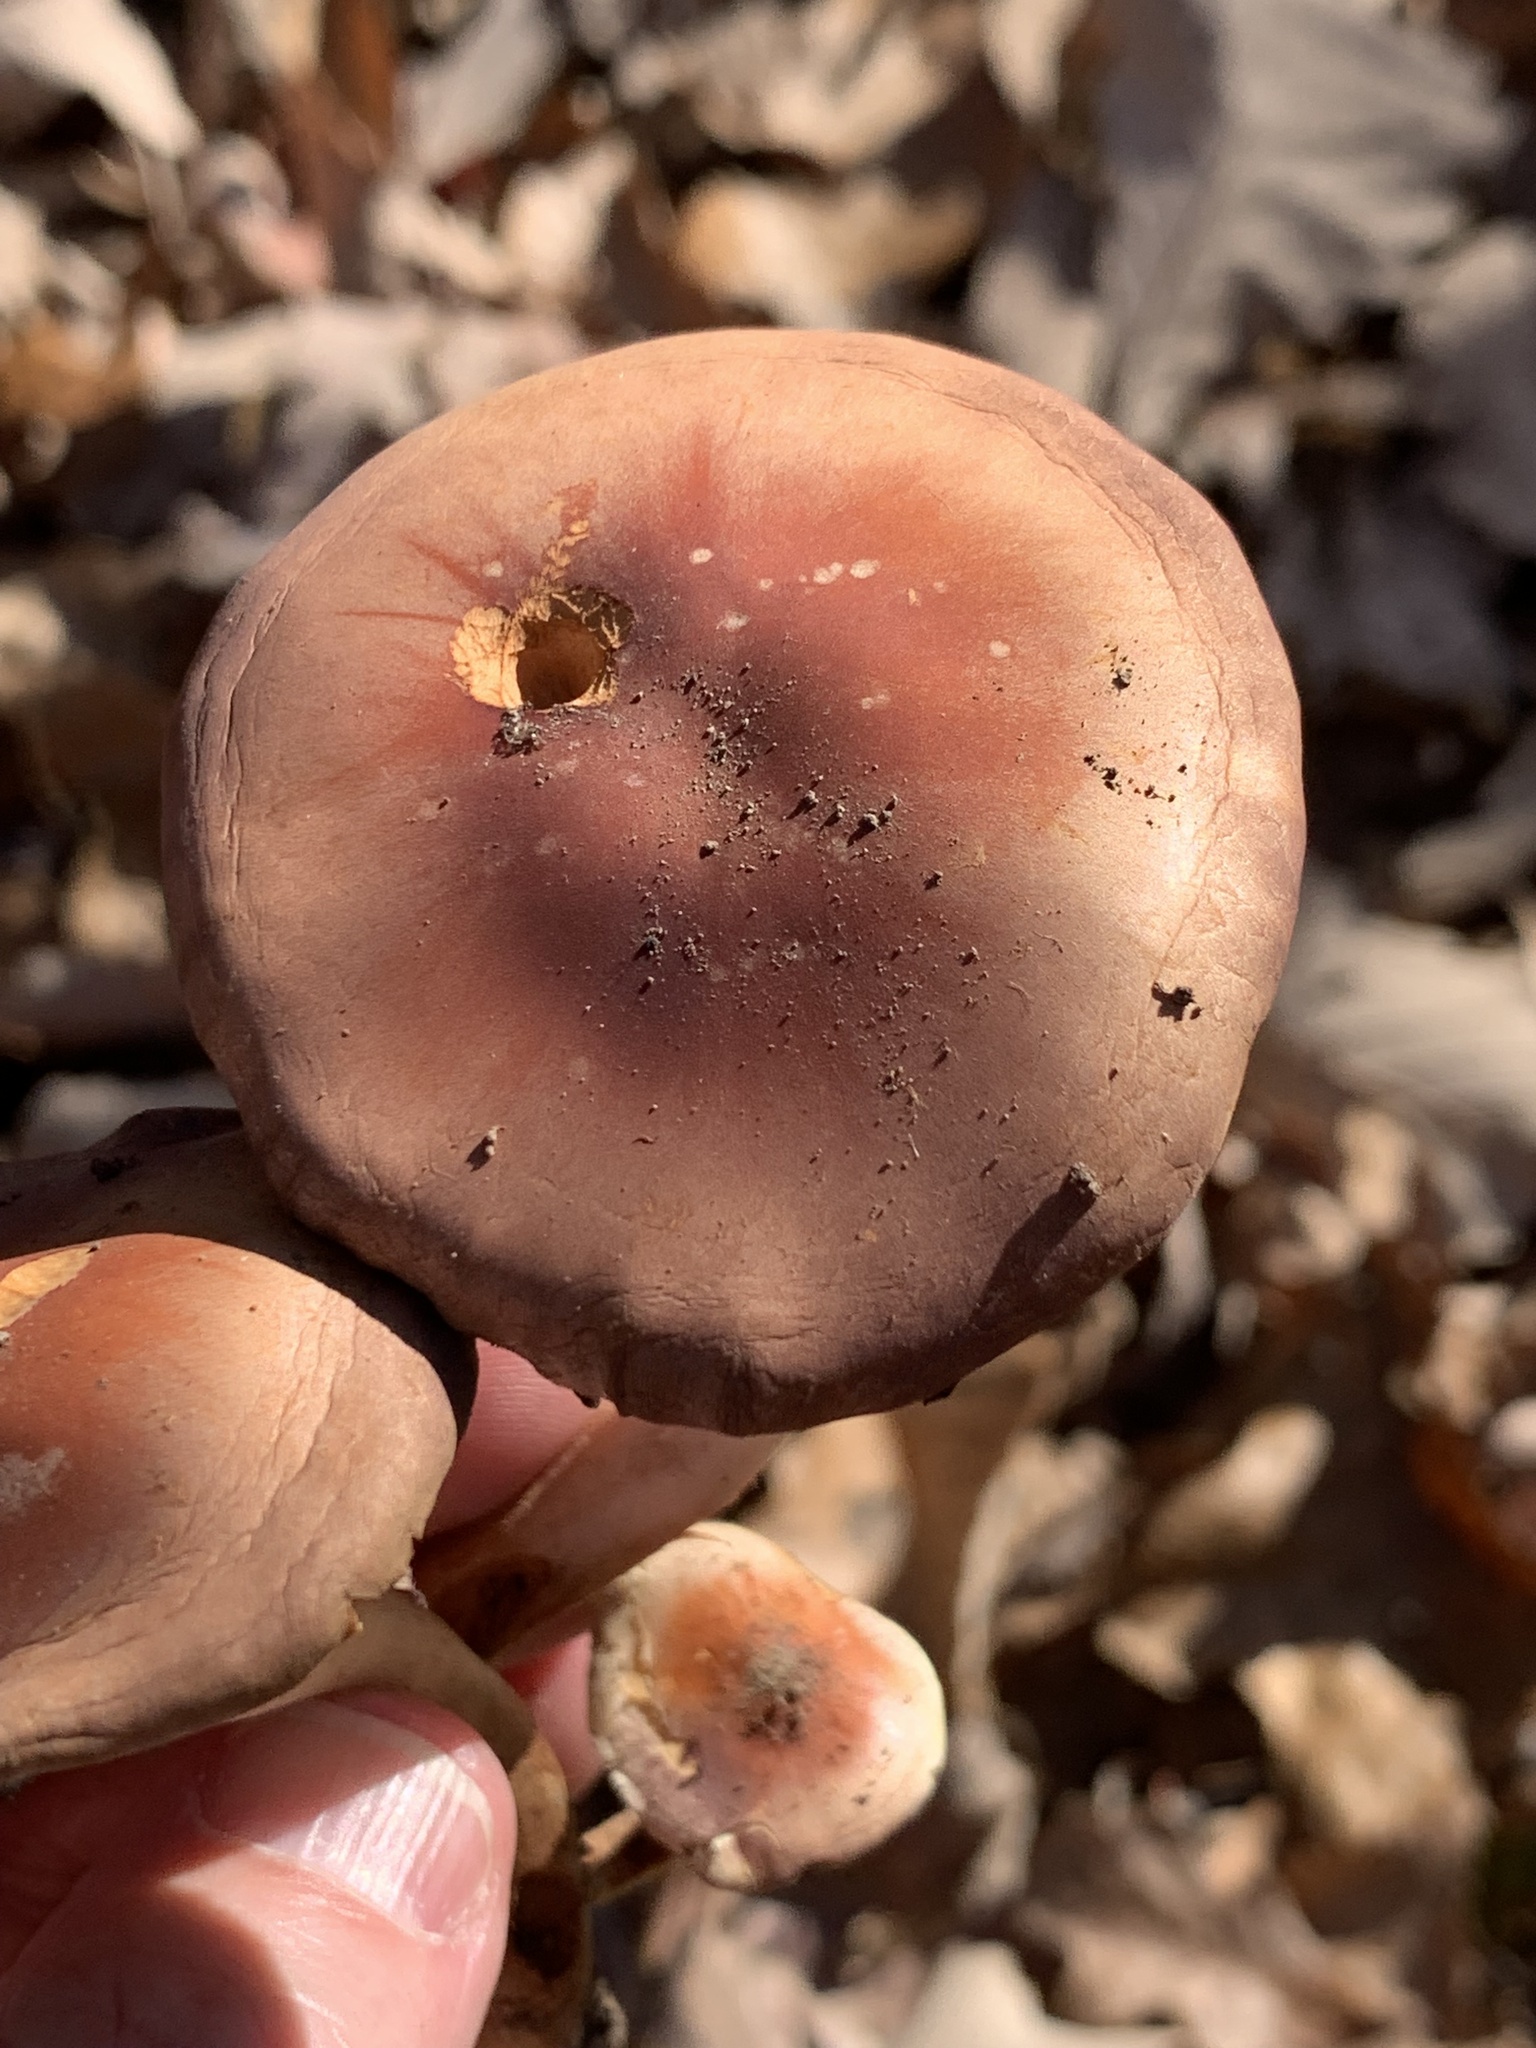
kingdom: Fungi
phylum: Basidiomycota
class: Agaricomycetes
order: Agaricales
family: Strophariaceae
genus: Hypholoma
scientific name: Hypholoma lateritium
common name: Brick caps
